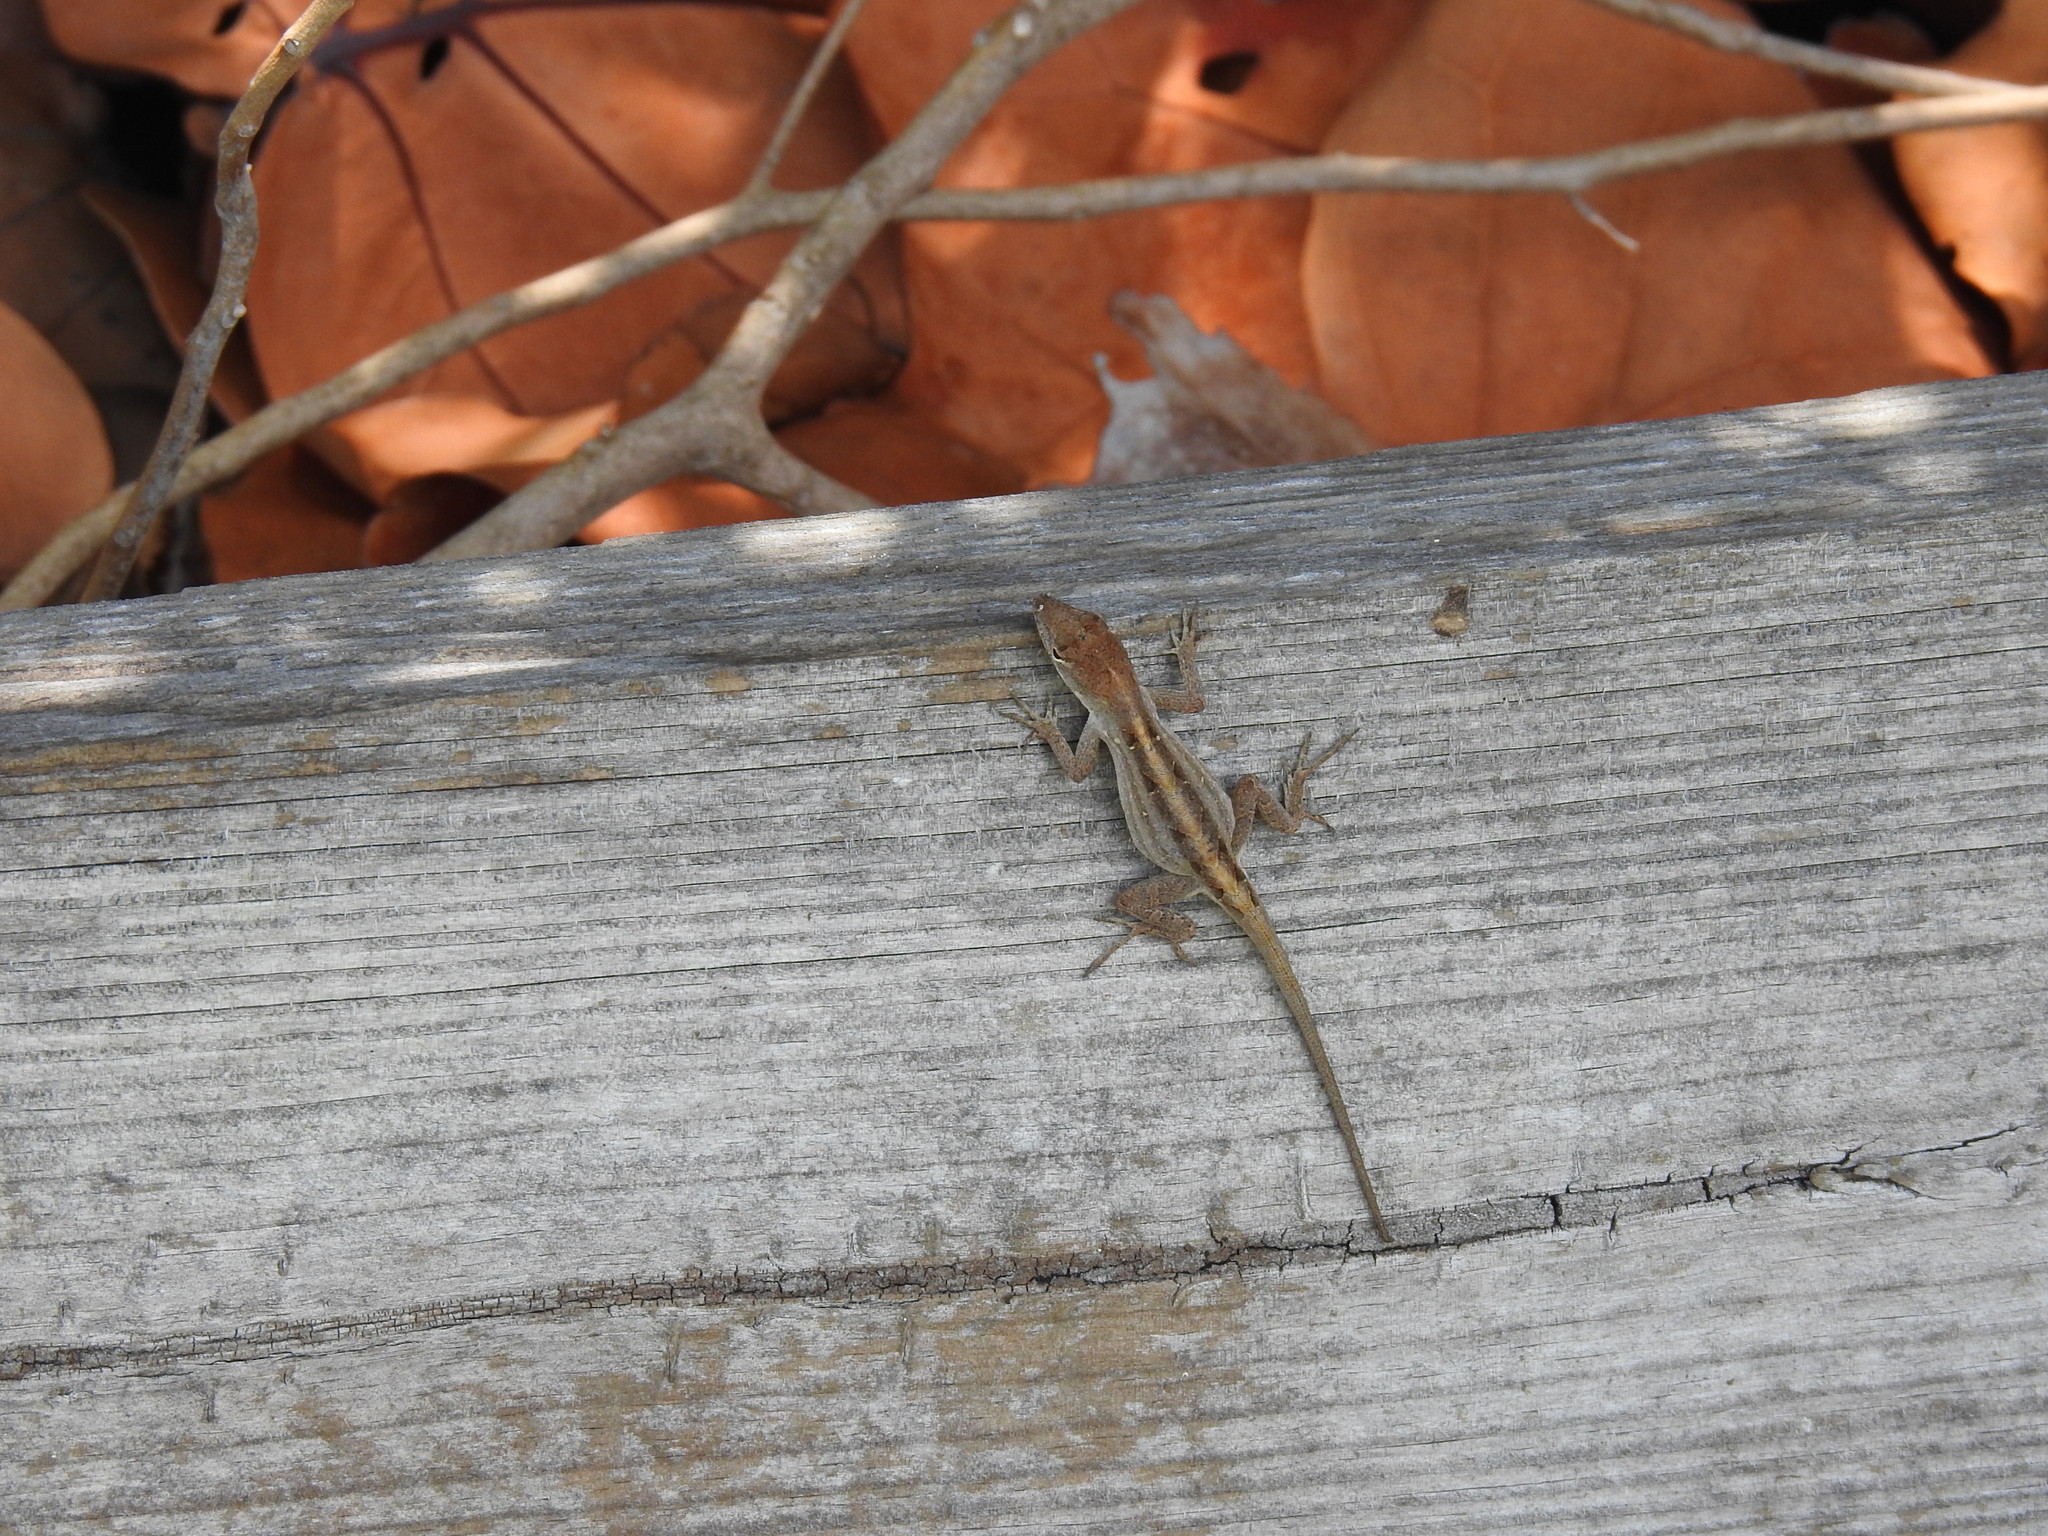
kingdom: Animalia
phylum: Chordata
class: Squamata
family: Dactyloidae
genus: Anolis
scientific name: Anolis sagrei
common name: Brown anole
